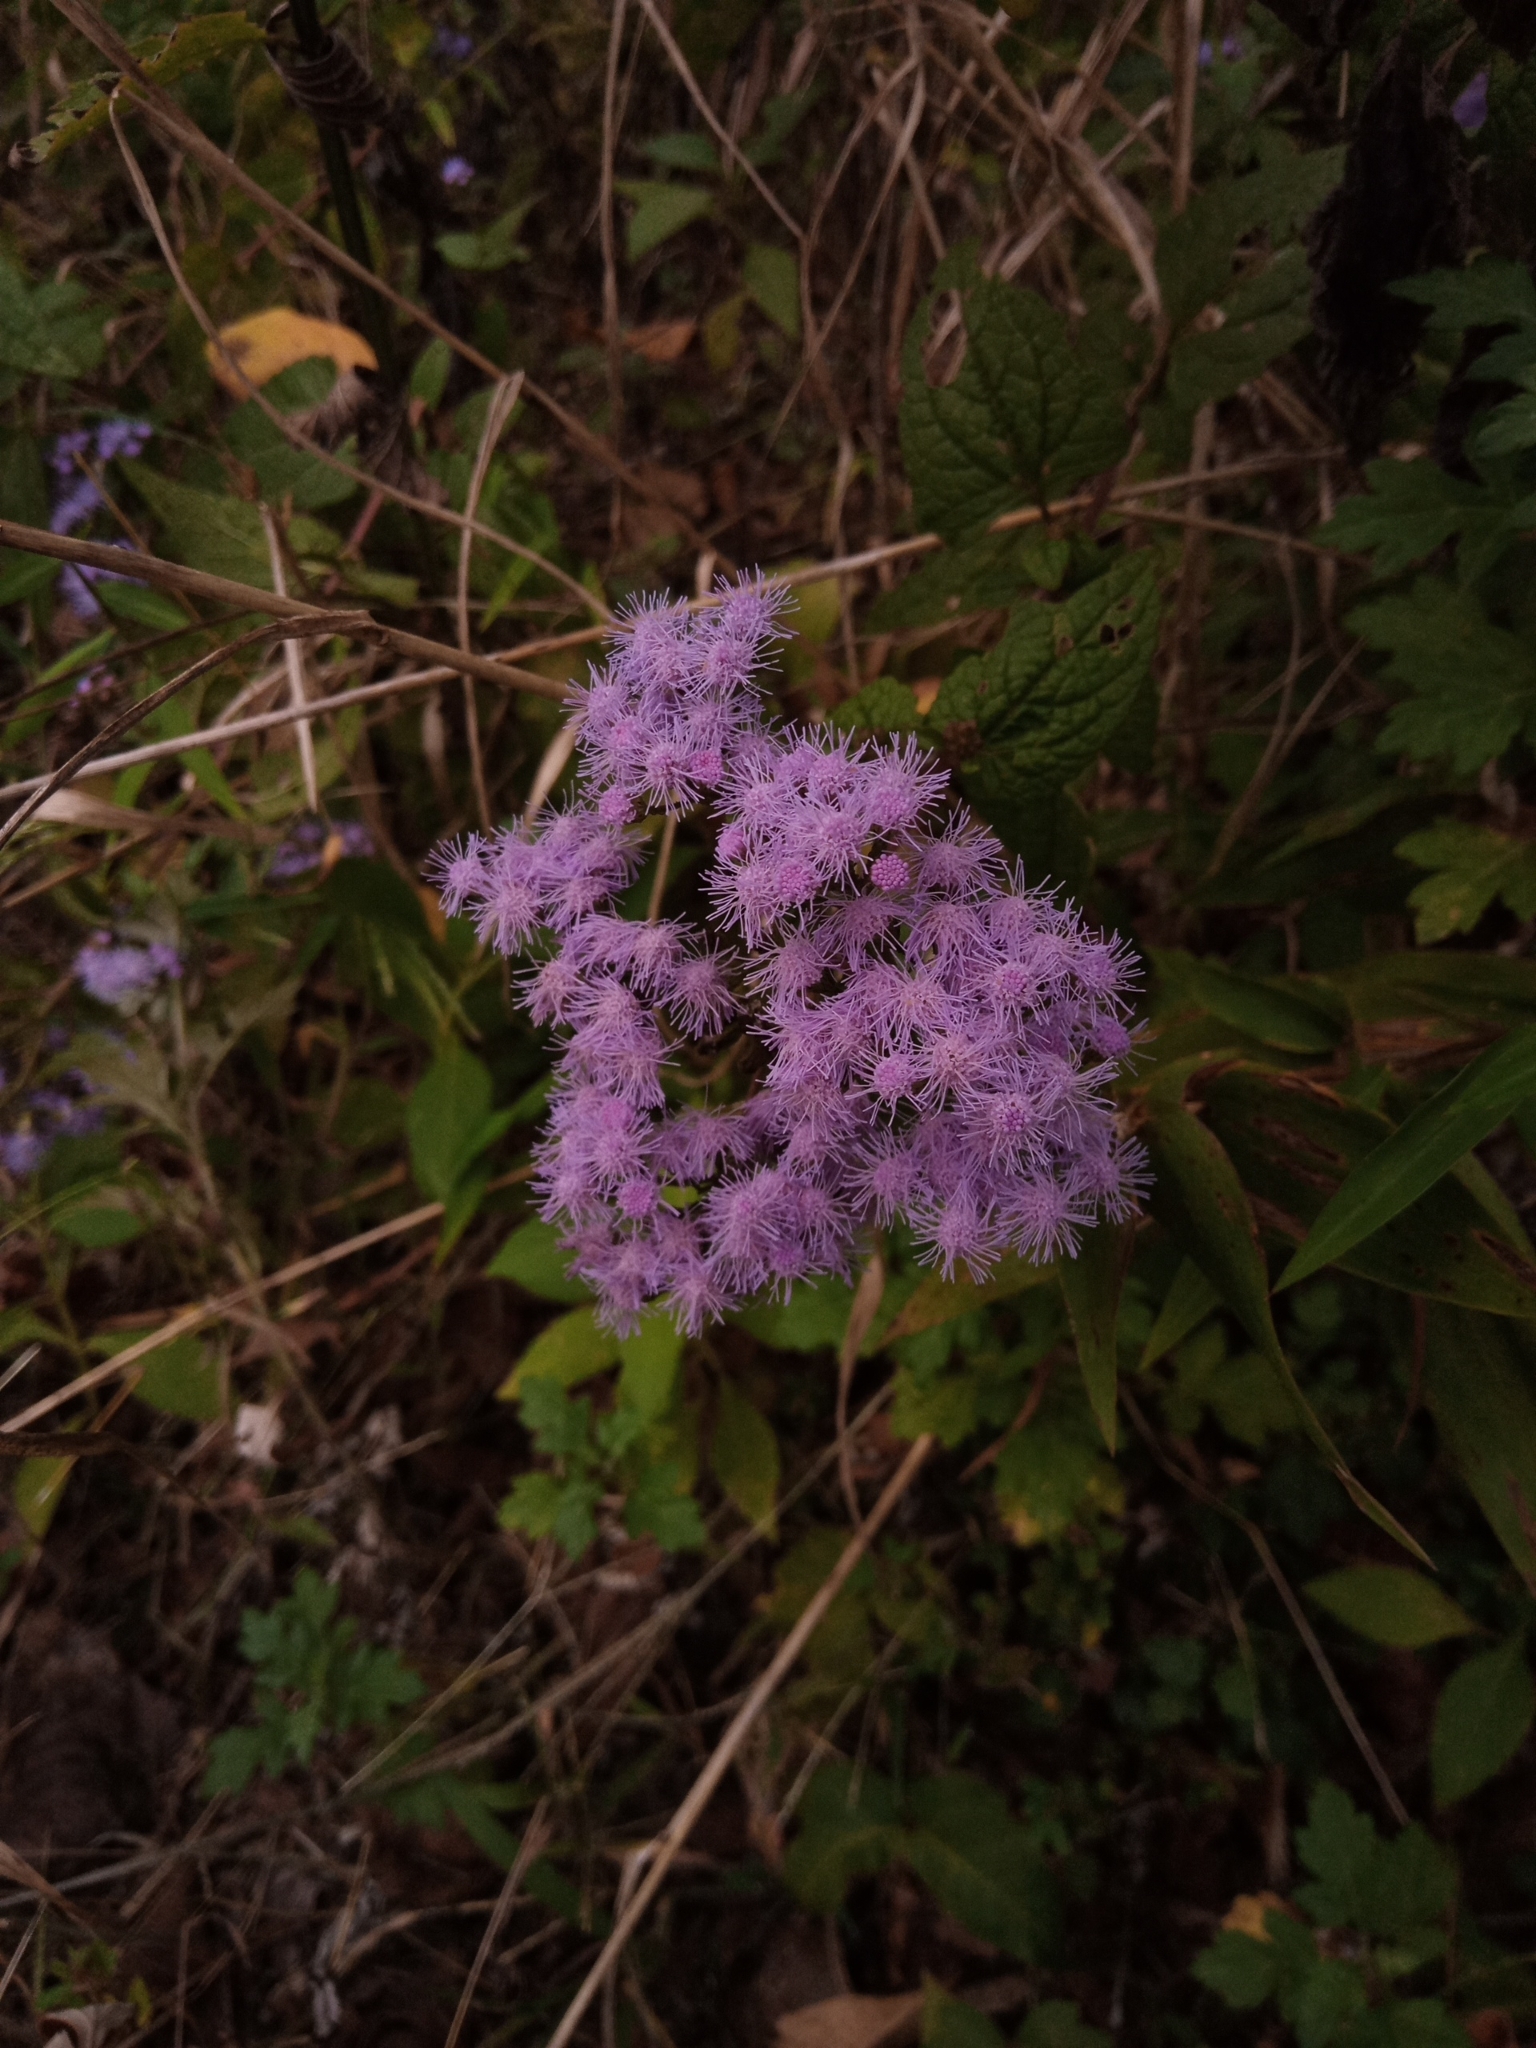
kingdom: Plantae
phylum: Tracheophyta
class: Magnoliopsida
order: Asterales
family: Asteraceae
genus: Conoclinium
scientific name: Conoclinium coelestinum
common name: Blue mistflower
